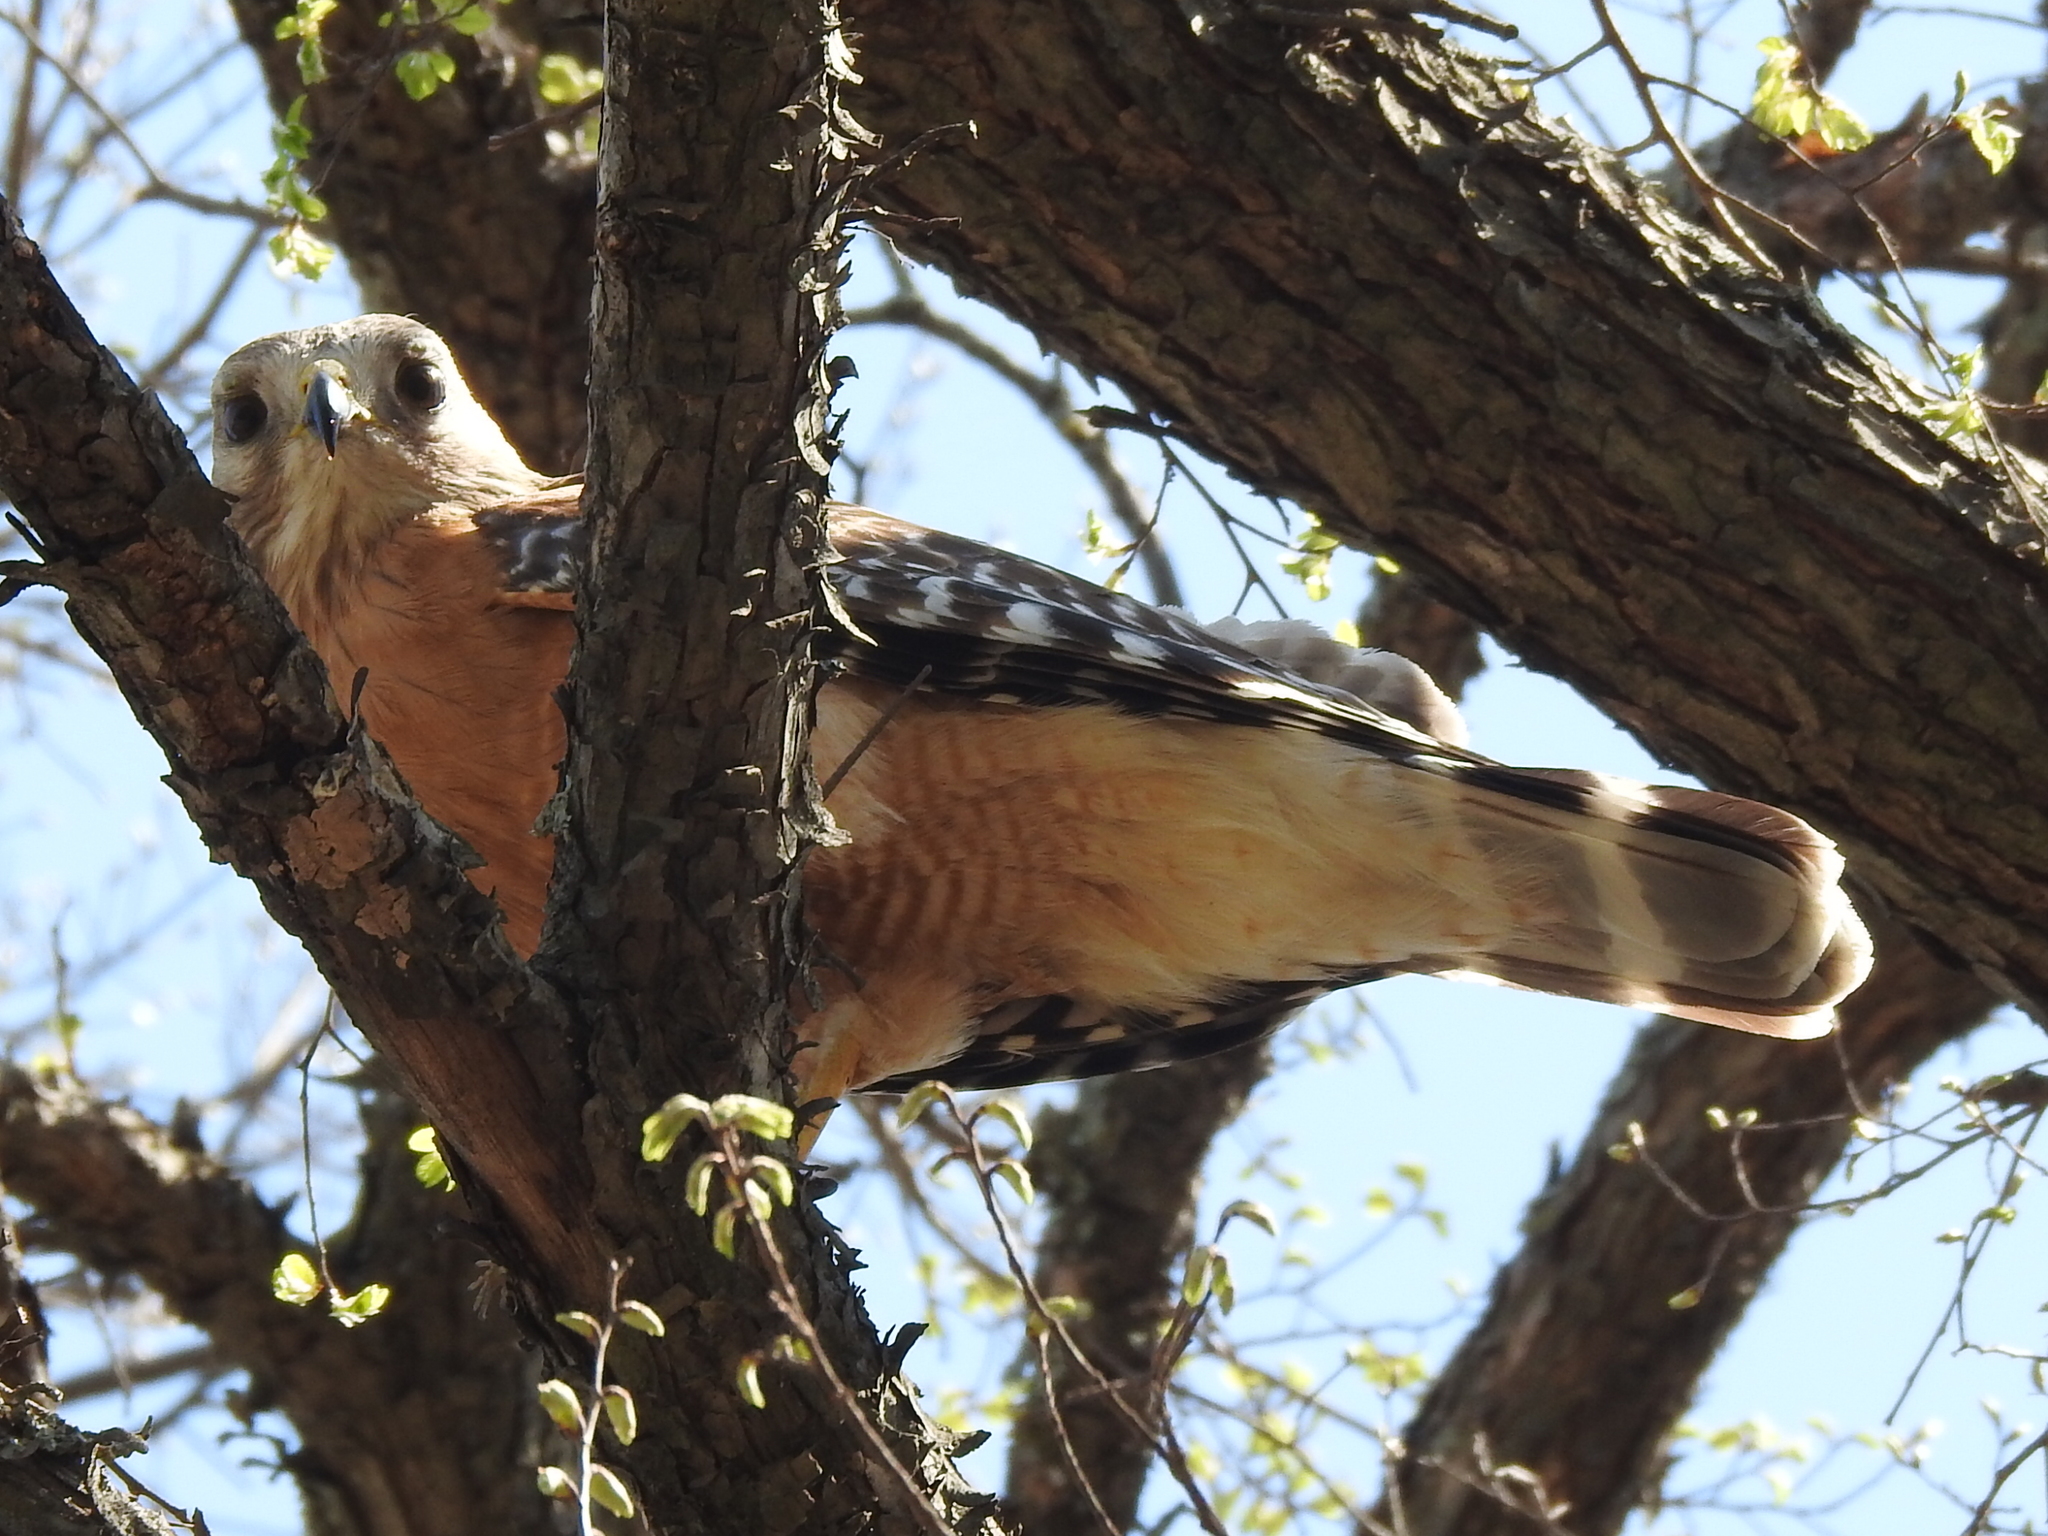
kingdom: Animalia
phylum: Chordata
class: Aves
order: Accipitriformes
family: Accipitridae
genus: Buteo
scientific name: Buteo lineatus
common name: Red-shouldered hawk
